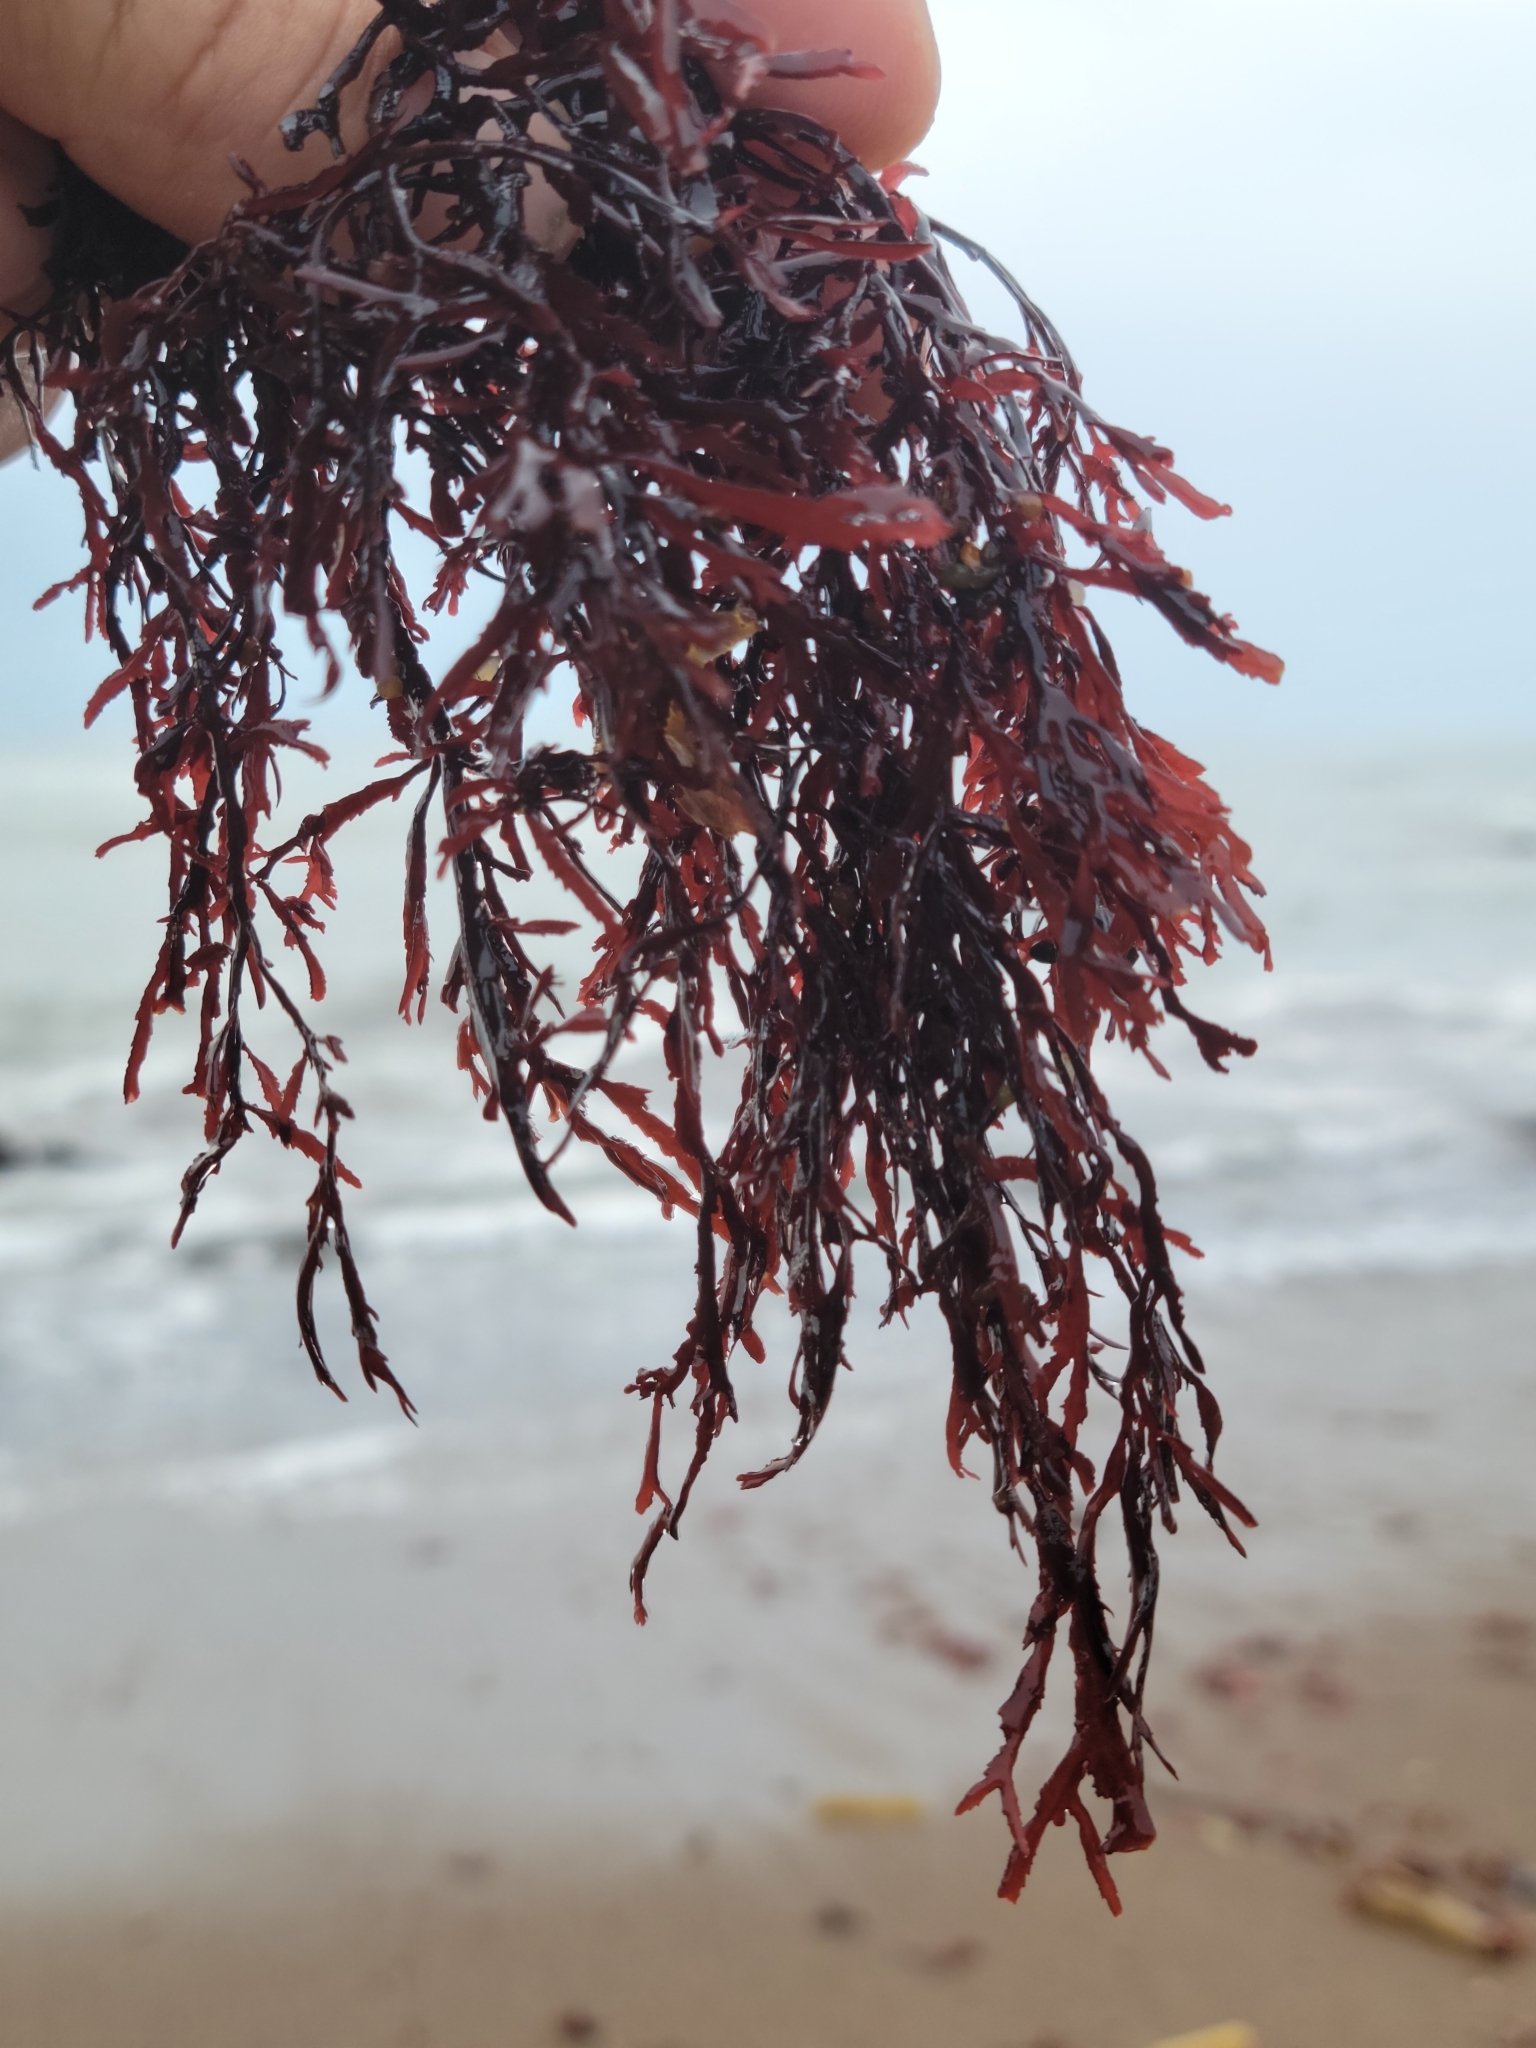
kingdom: Plantae
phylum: Rhodophyta
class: Florideophyceae
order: Ceramiales
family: Delesseriaceae
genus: Nienburgia
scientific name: Nienburgia andersoniana
